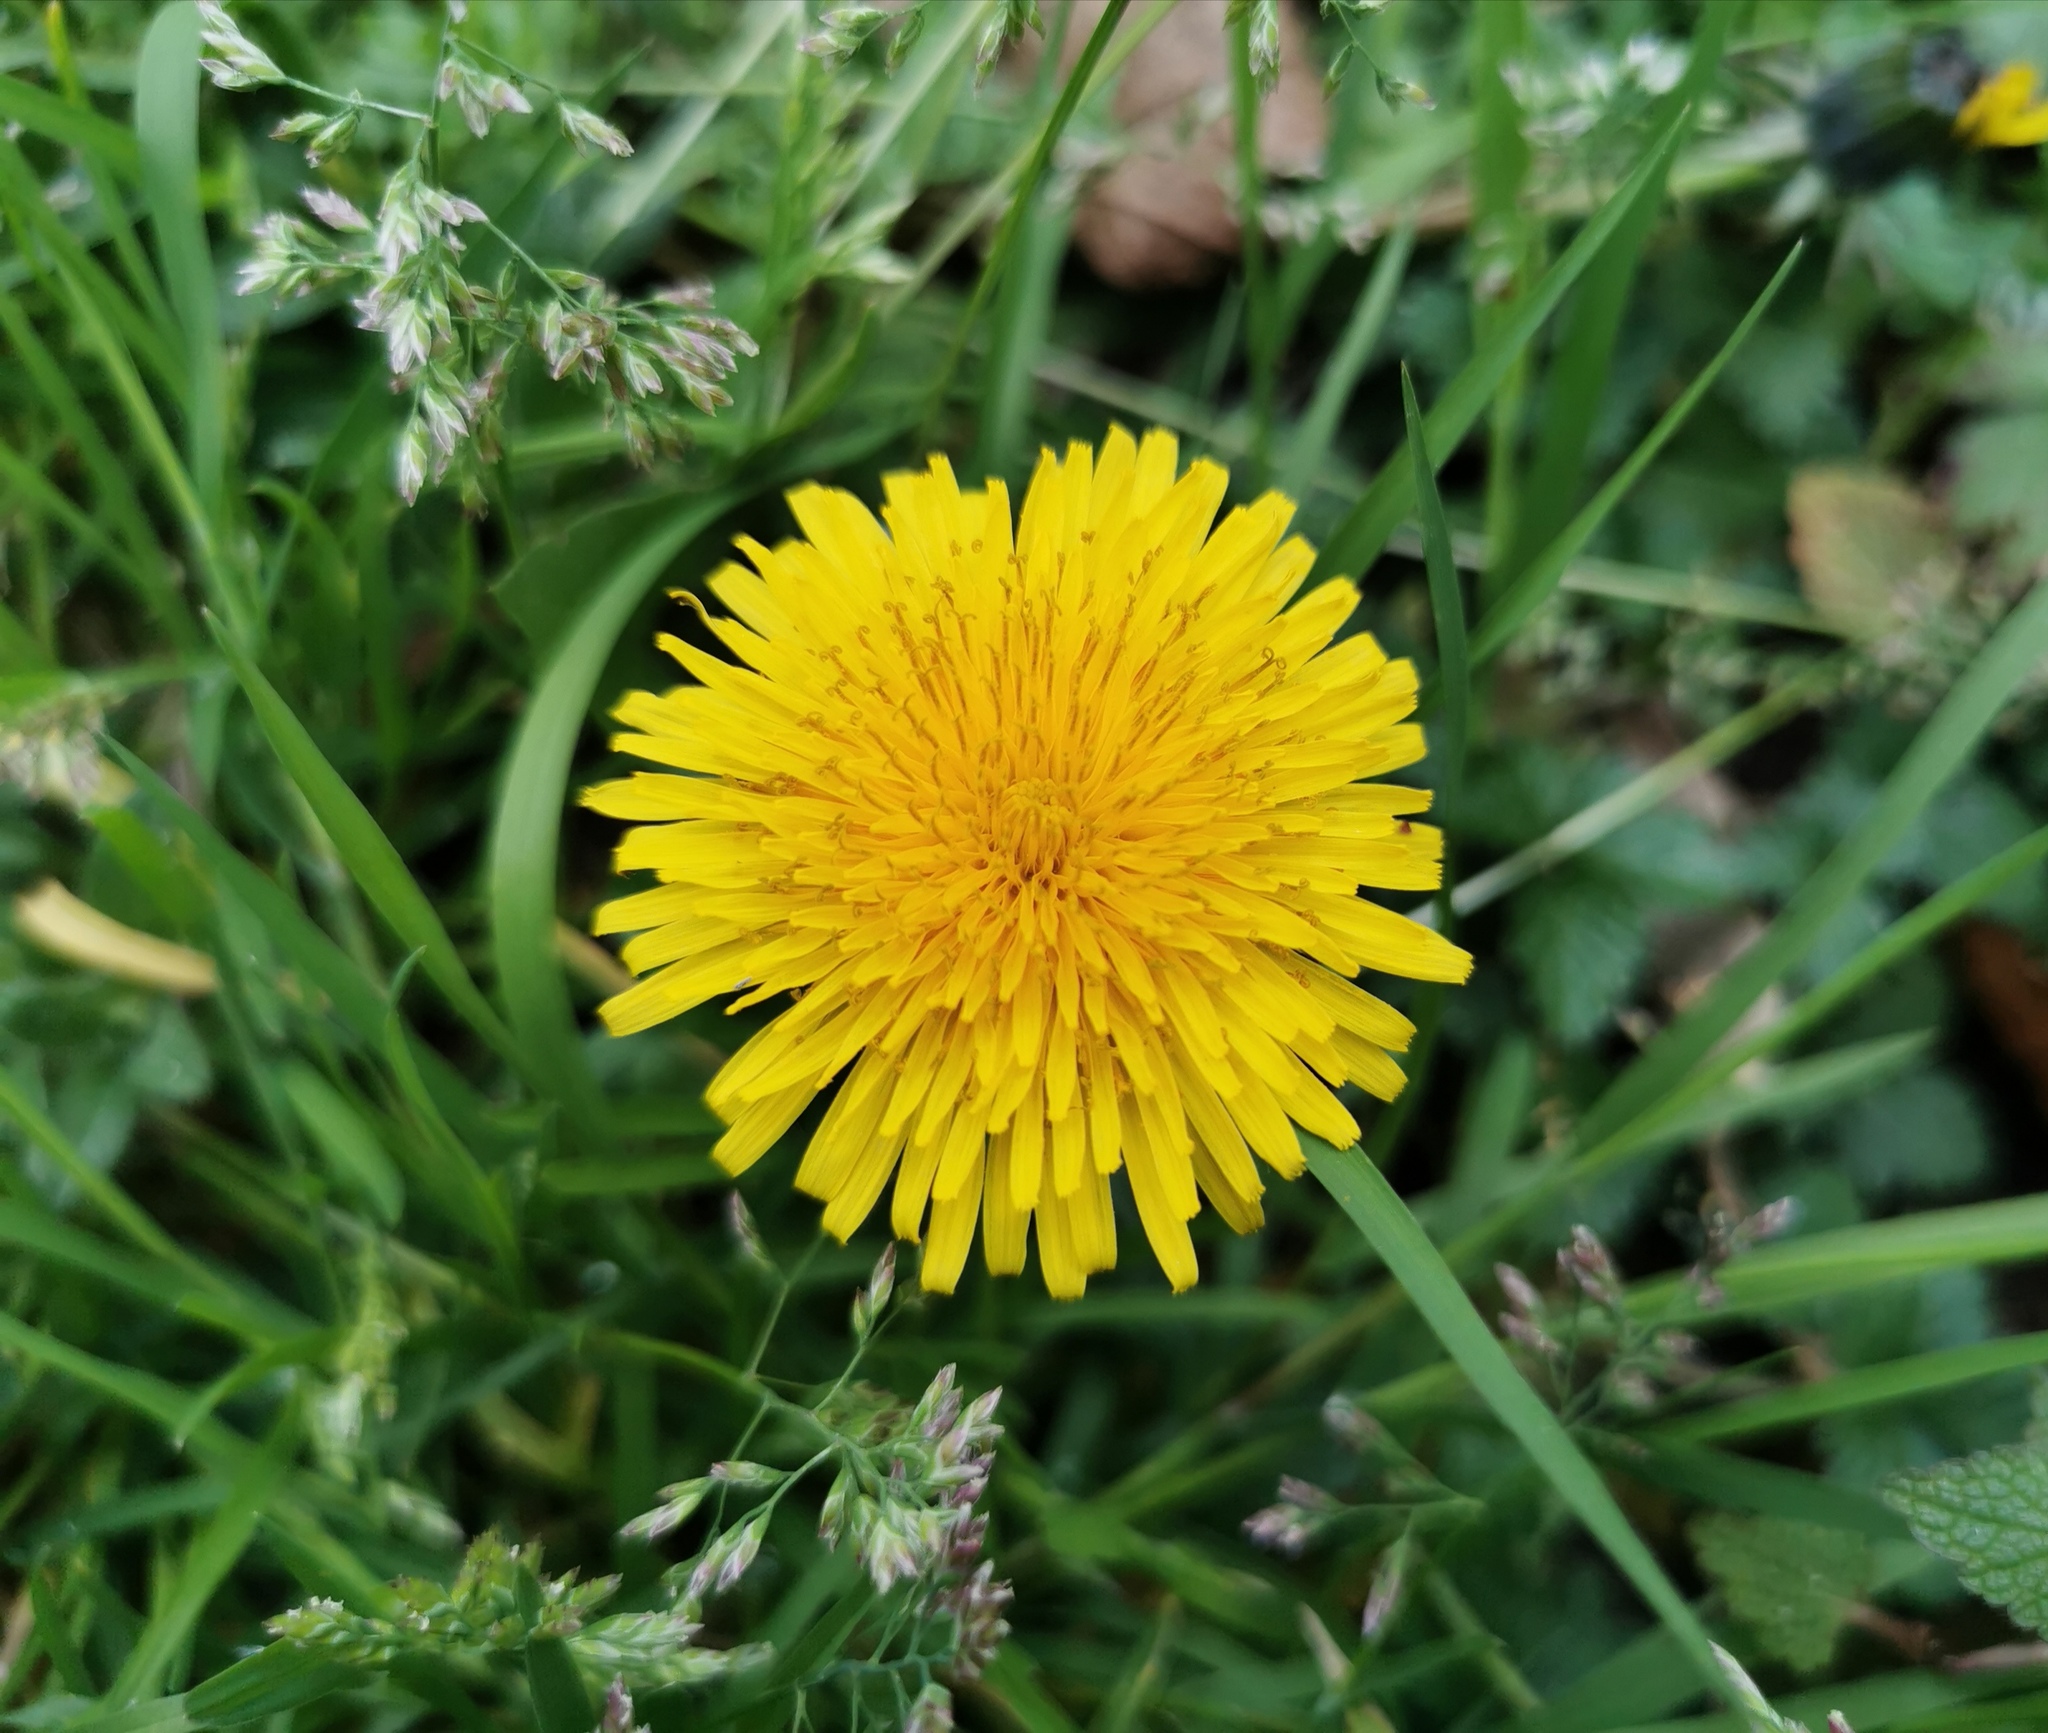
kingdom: Plantae
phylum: Tracheophyta
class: Magnoliopsida
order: Asterales
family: Asteraceae
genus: Taraxacum
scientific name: Taraxacum officinale
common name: Common dandelion
